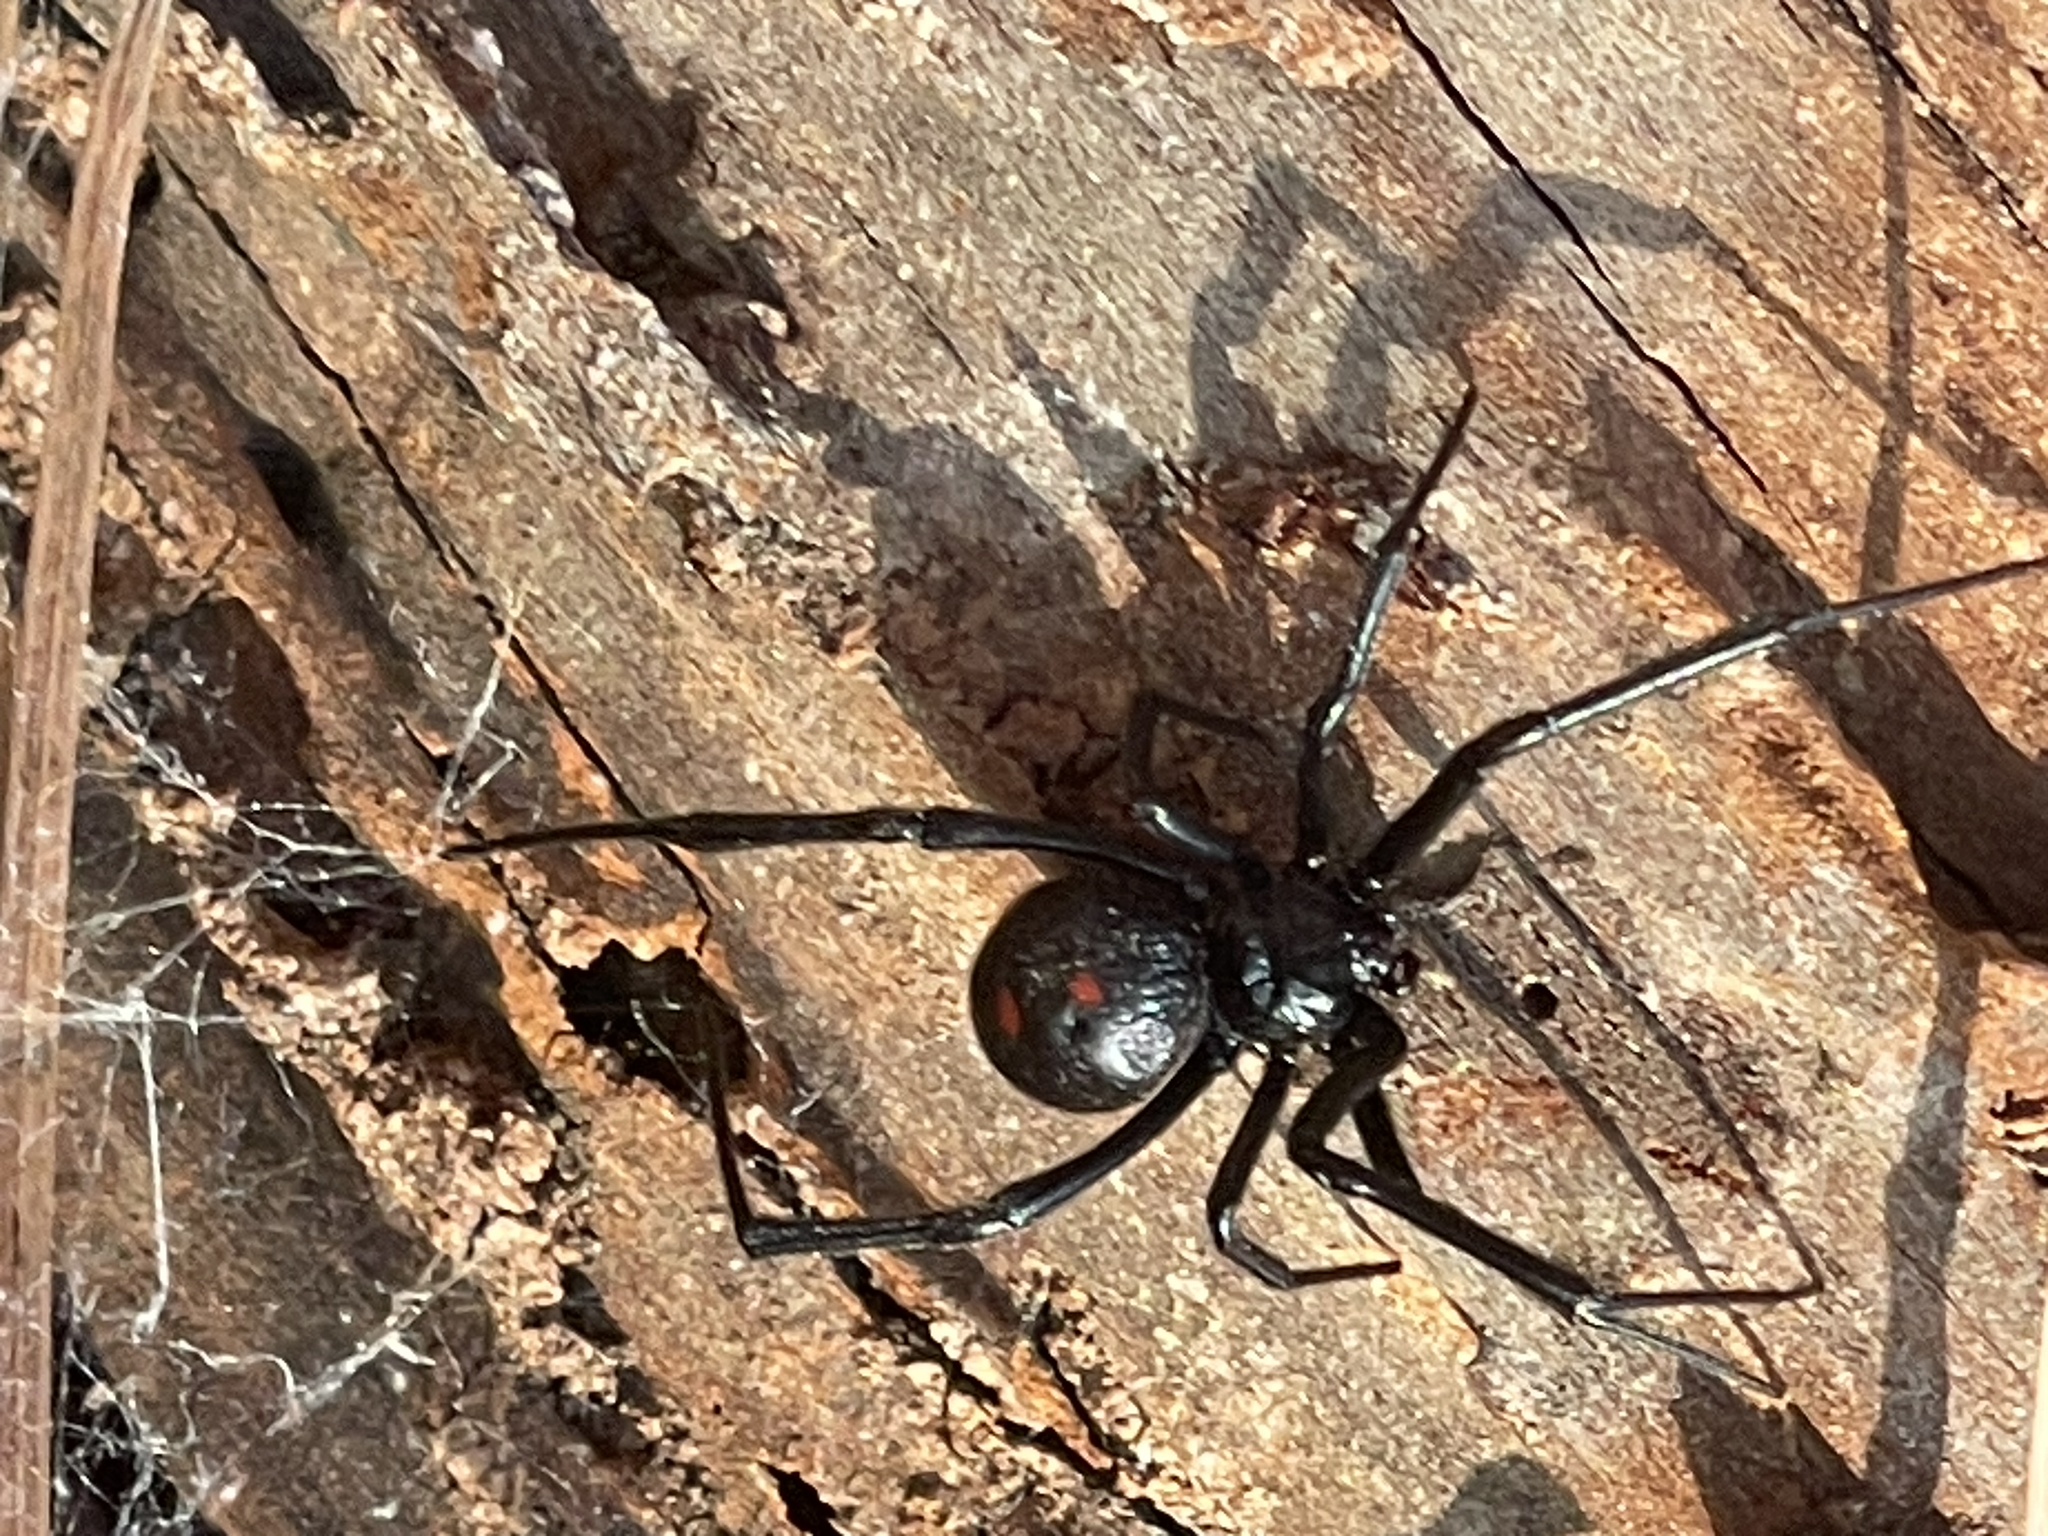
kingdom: Animalia
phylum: Arthropoda
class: Arachnida
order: Araneae
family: Theridiidae
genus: Latrodectus
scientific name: Latrodectus variolus
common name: Northern black widow
